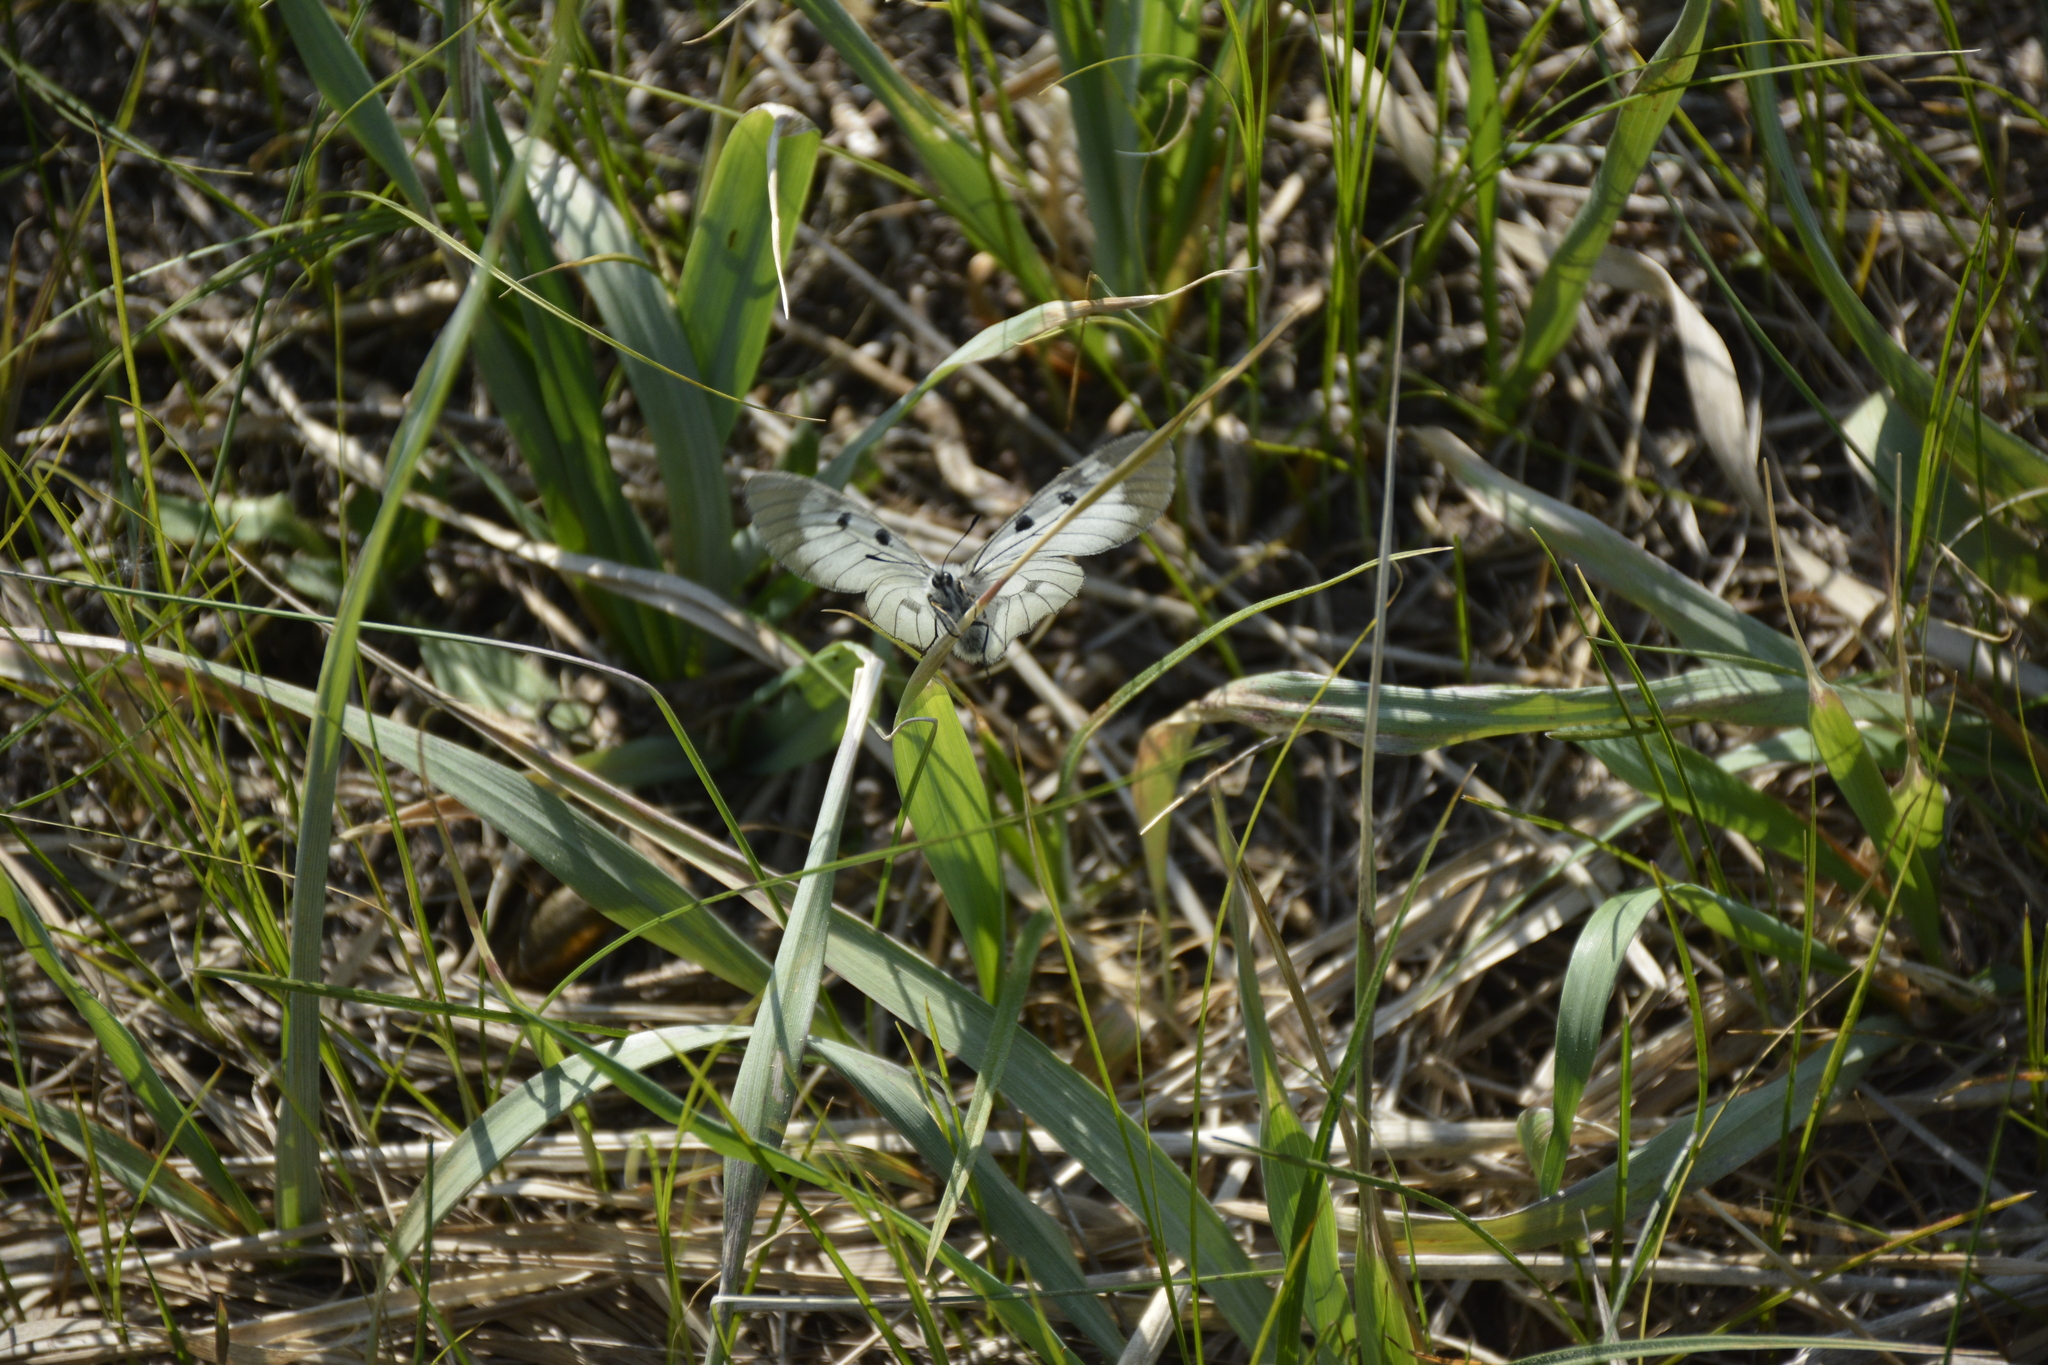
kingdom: Animalia
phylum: Arthropoda
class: Insecta
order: Lepidoptera
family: Papilionidae
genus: Parnassius
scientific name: Parnassius mnemosyne
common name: Clouded apollo
